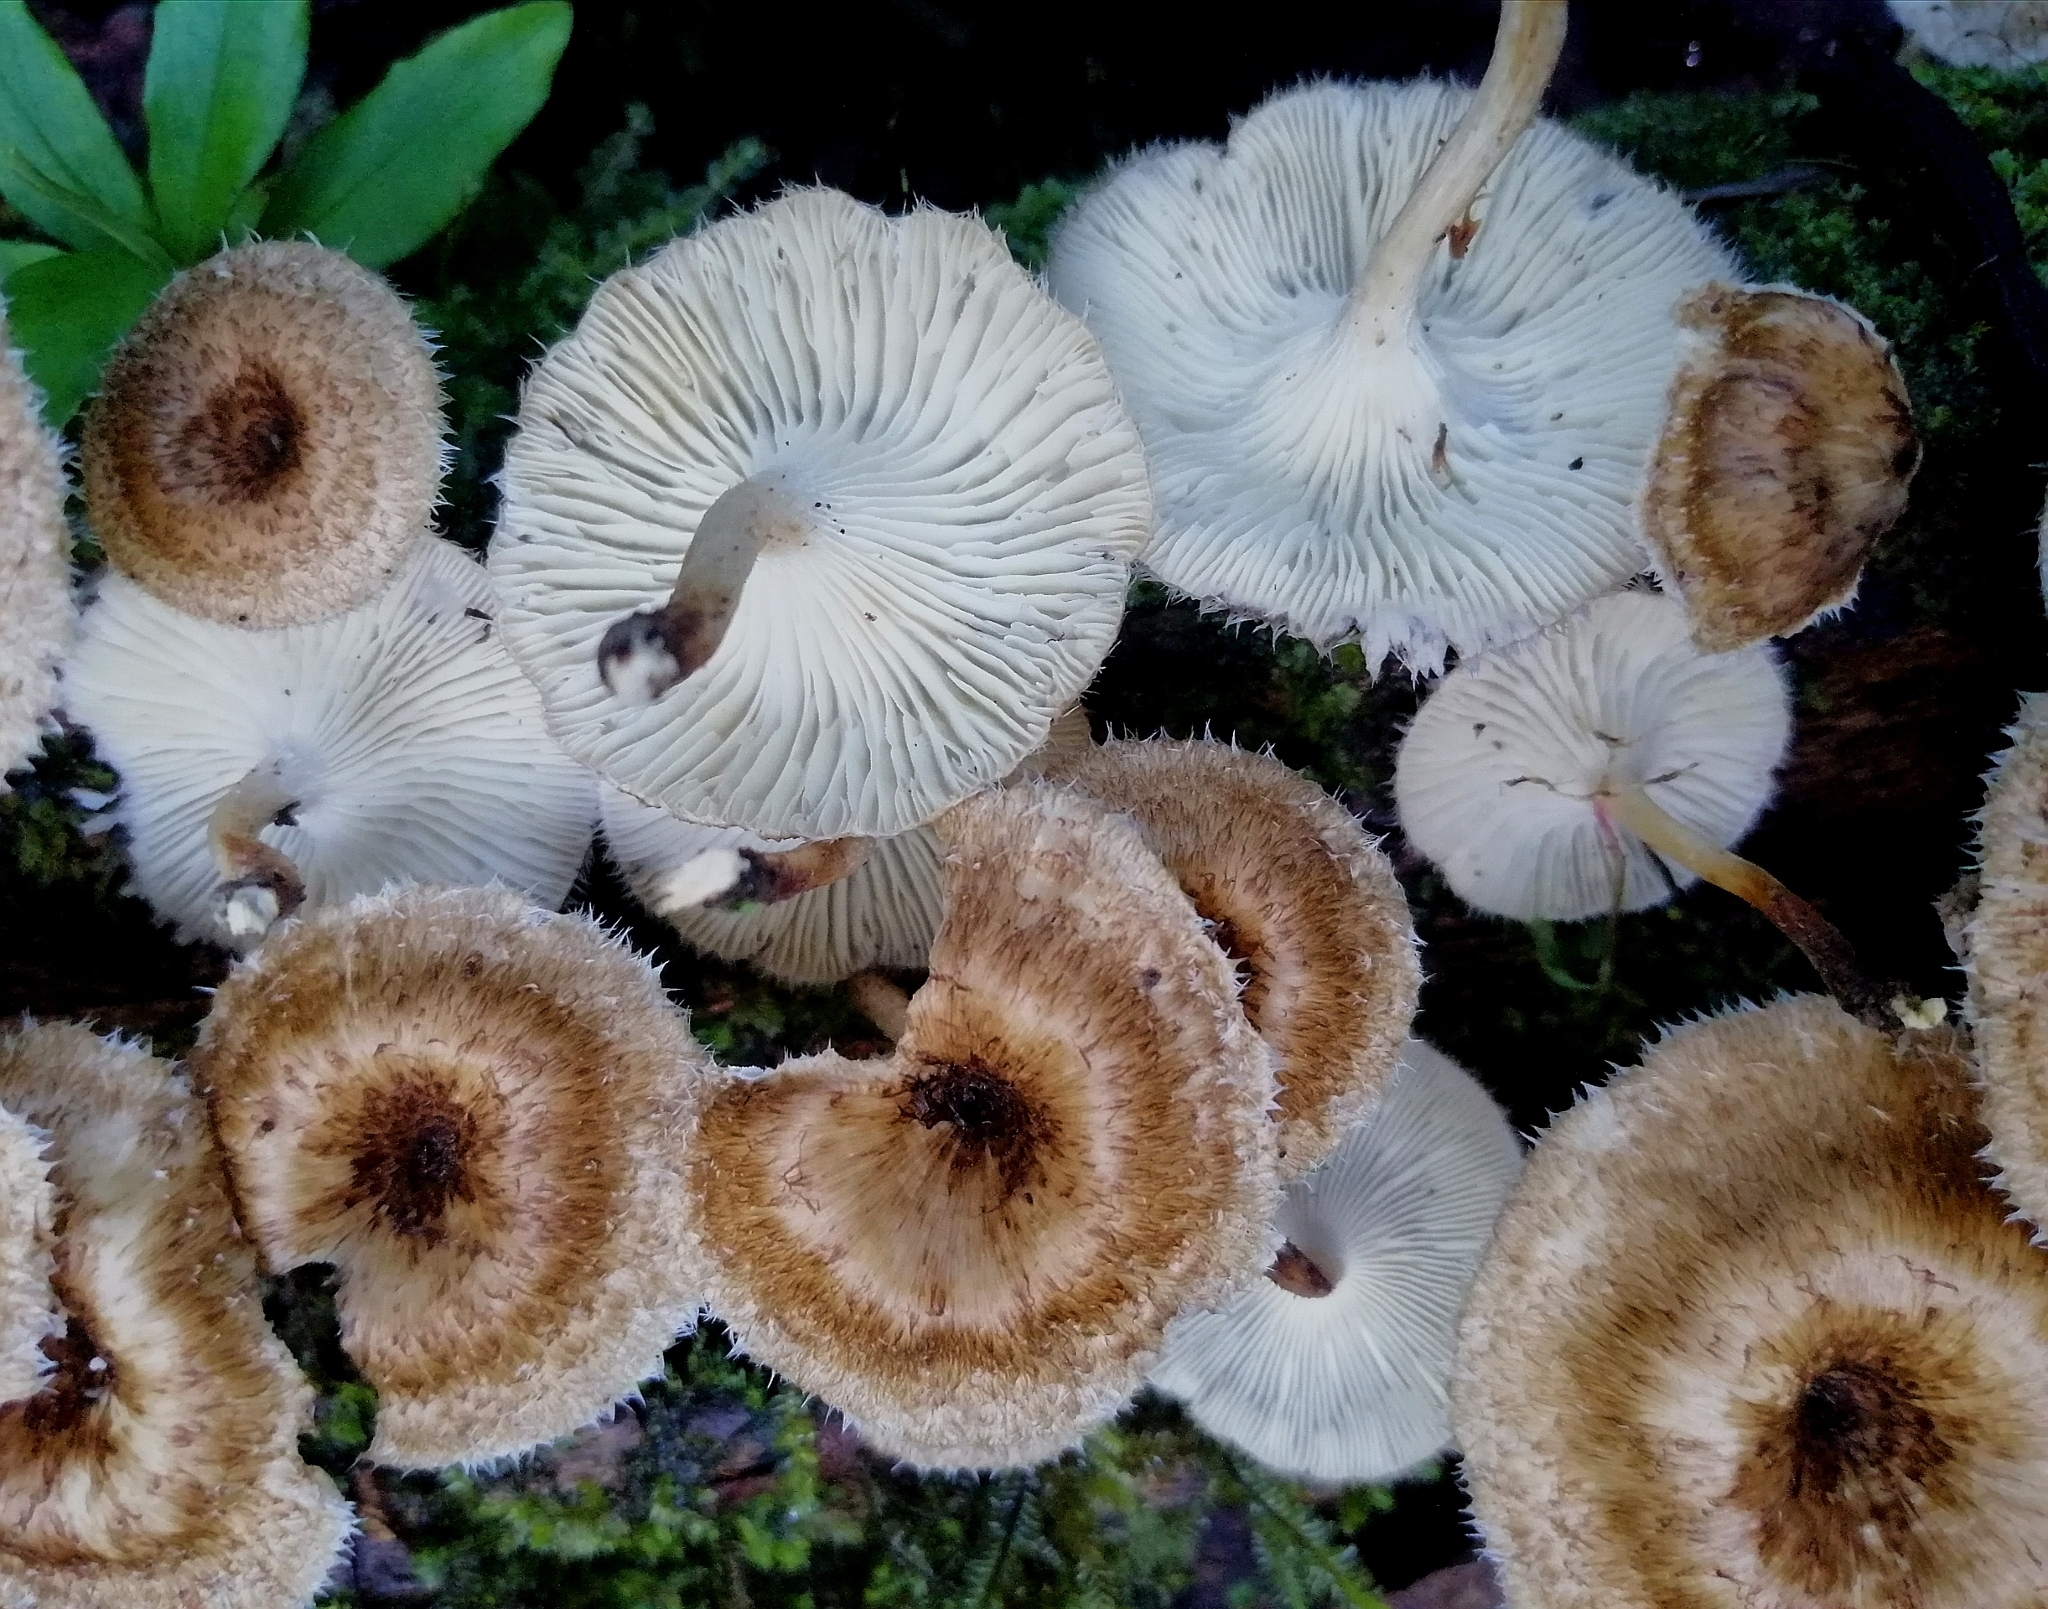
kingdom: Fungi
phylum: Basidiomycota
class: Agaricomycetes
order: Polyporales
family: Polyporaceae
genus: Lentinus
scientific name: Lentinus crinitus
